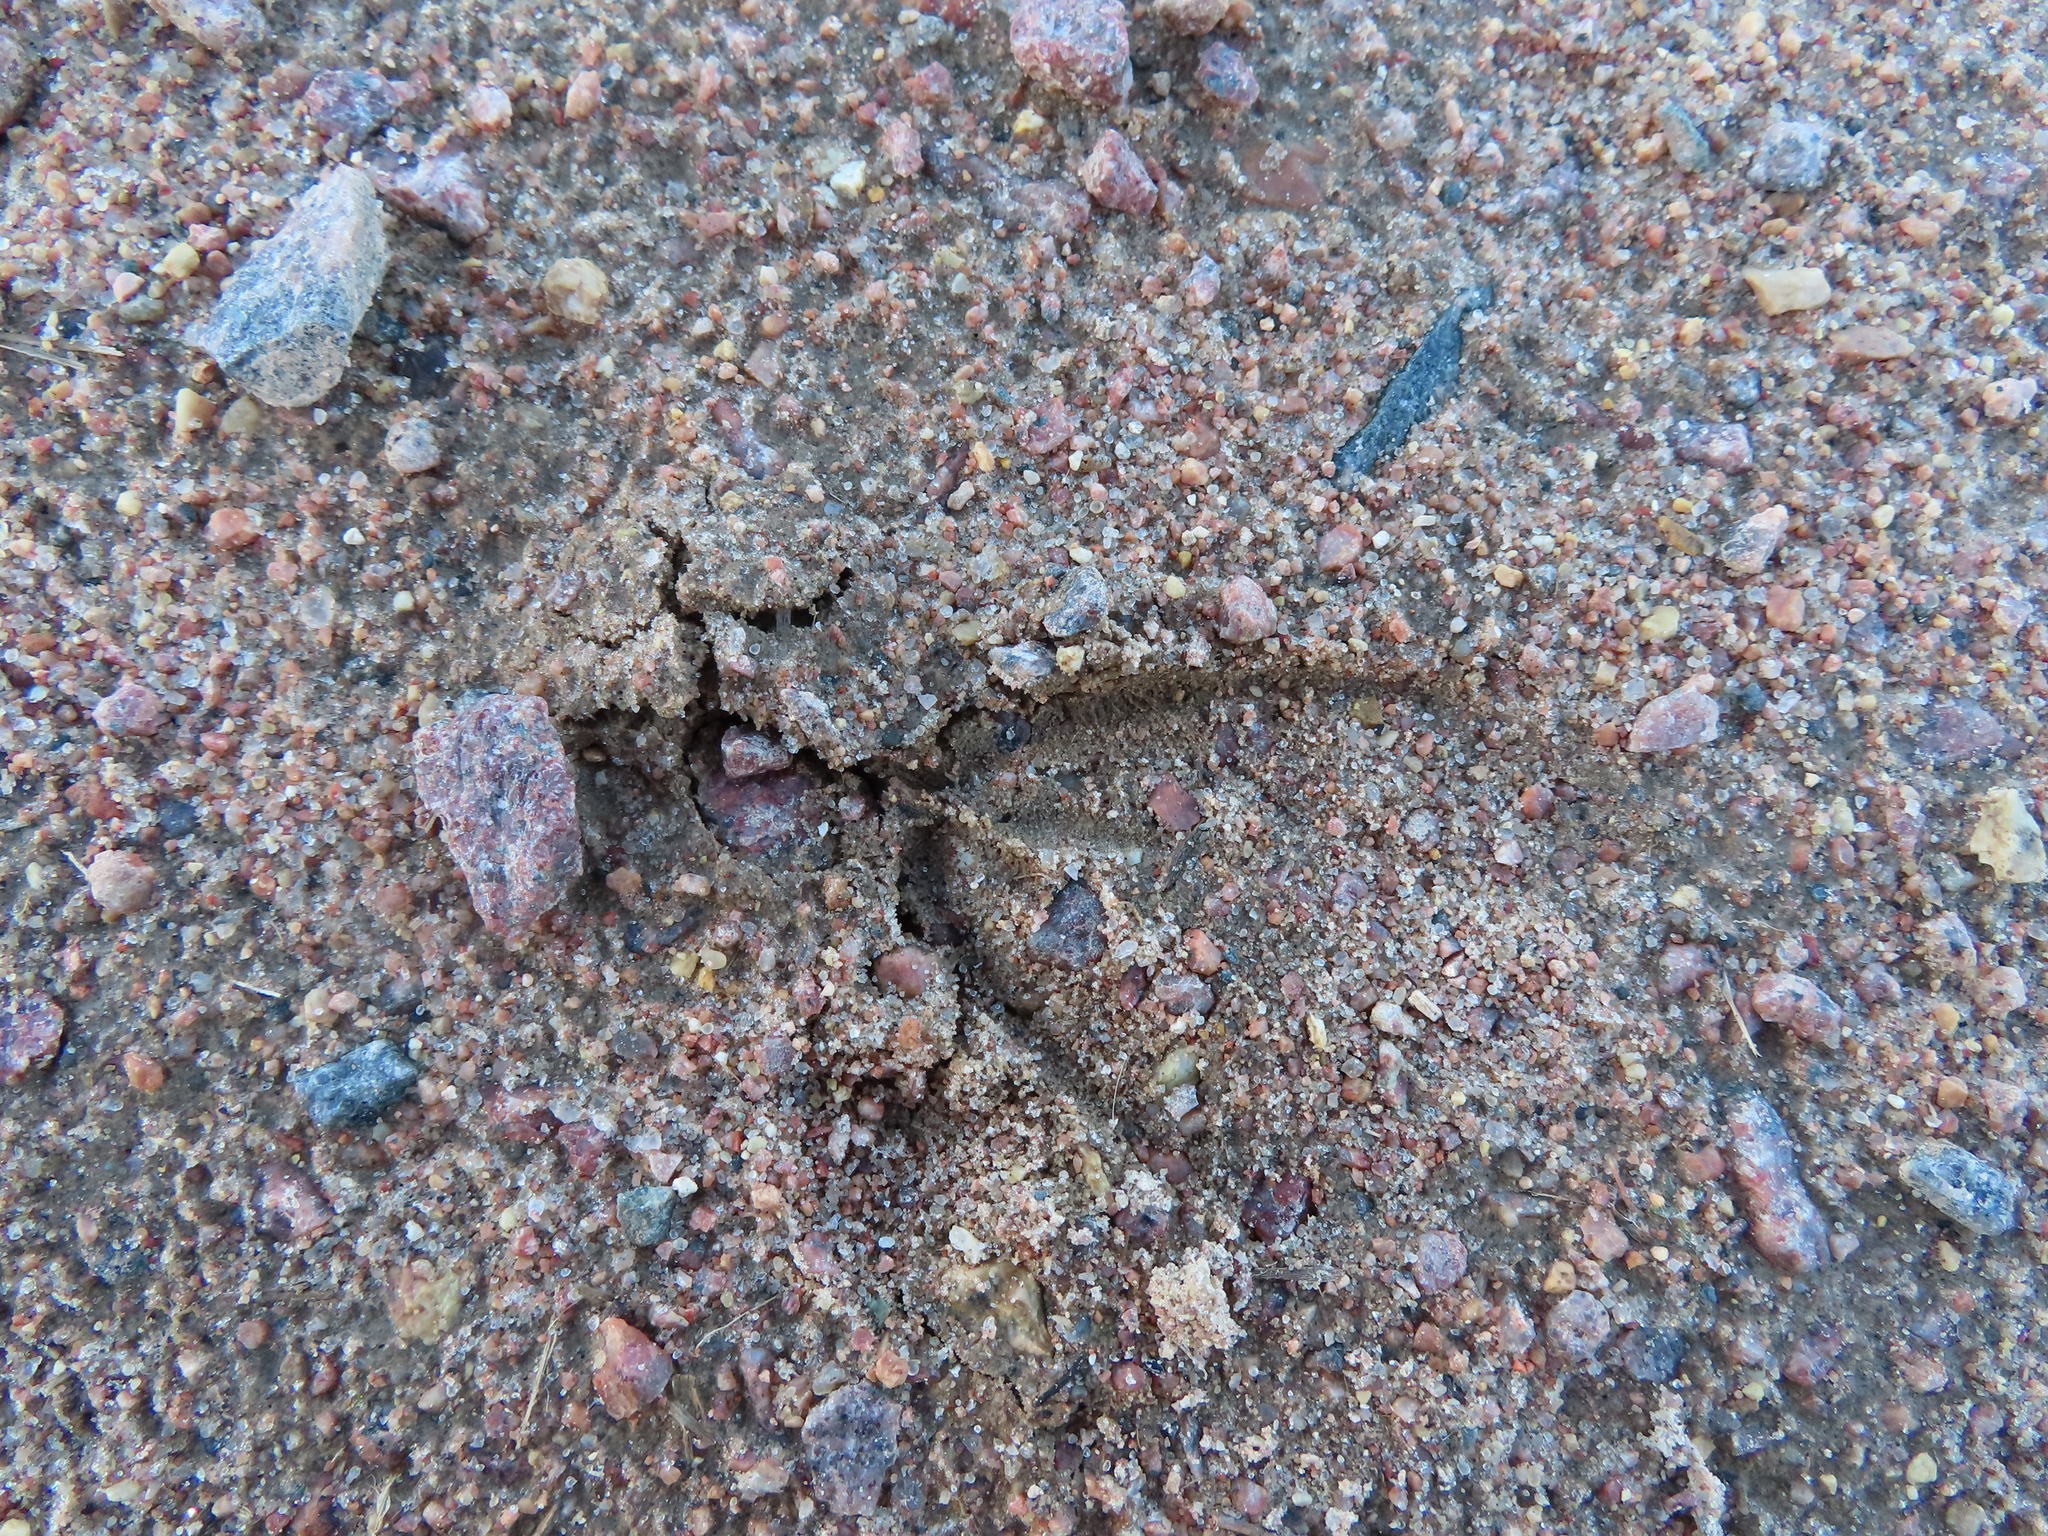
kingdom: Animalia
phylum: Chordata
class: Mammalia
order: Artiodactyla
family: Cervidae
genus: Odocoileus
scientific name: Odocoileus virginianus
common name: White-tailed deer
